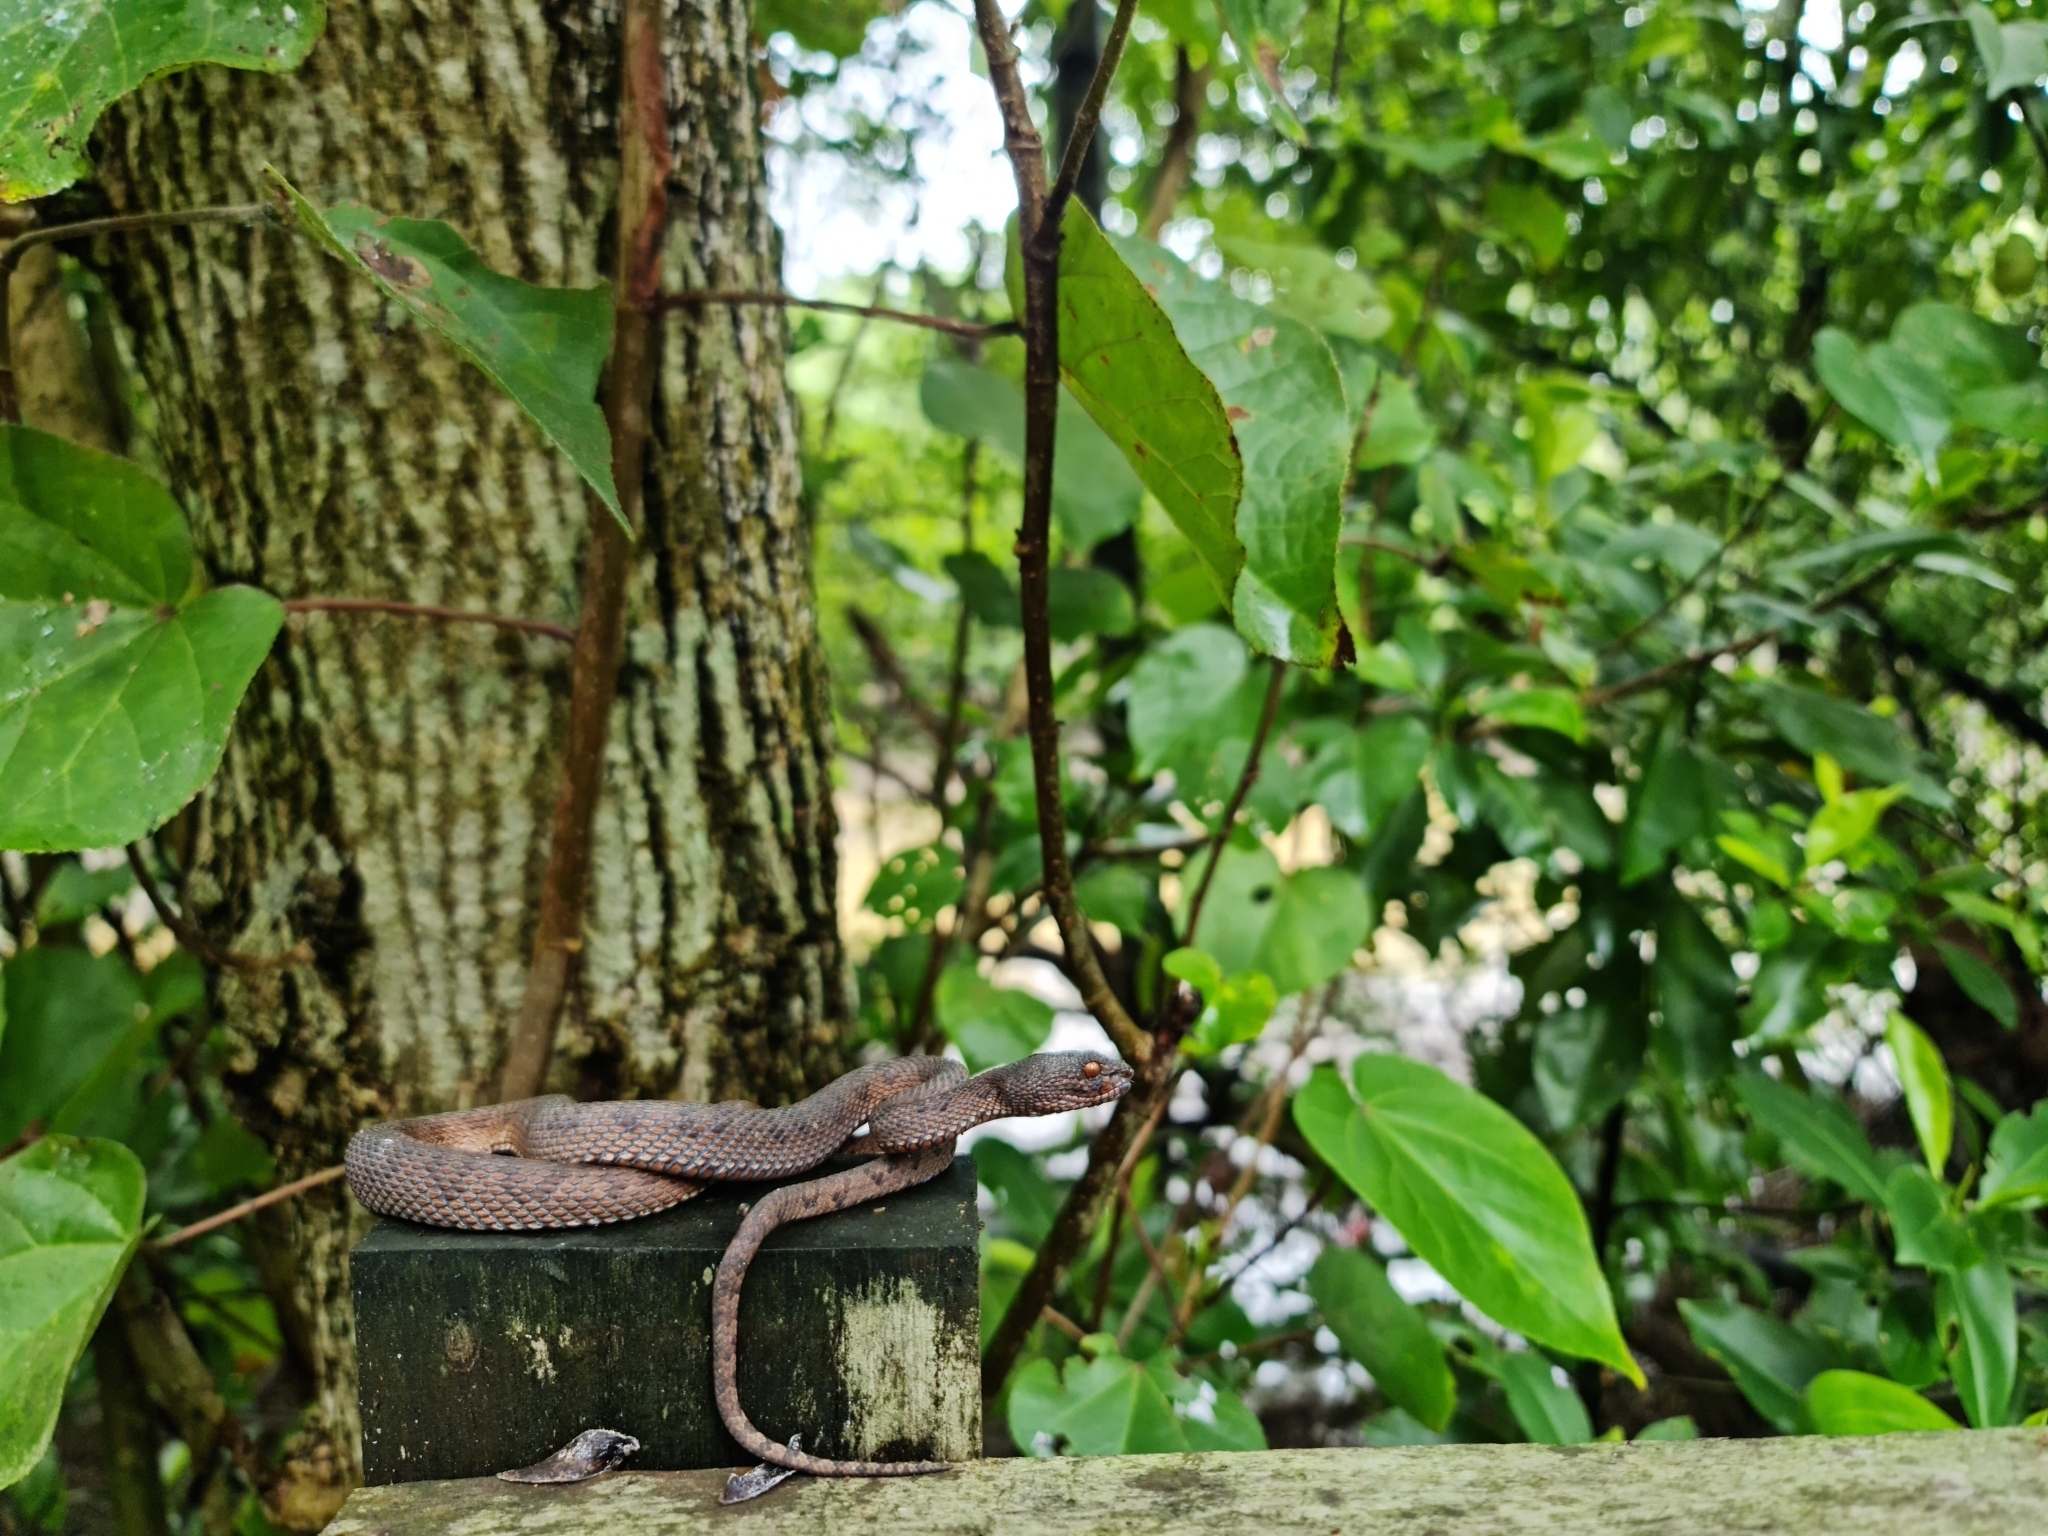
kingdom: Animalia
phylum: Chordata
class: Squamata
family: Viperidae
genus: Trimeresurus
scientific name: Trimeresurus purpureomaculatus
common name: Shore pit viper
